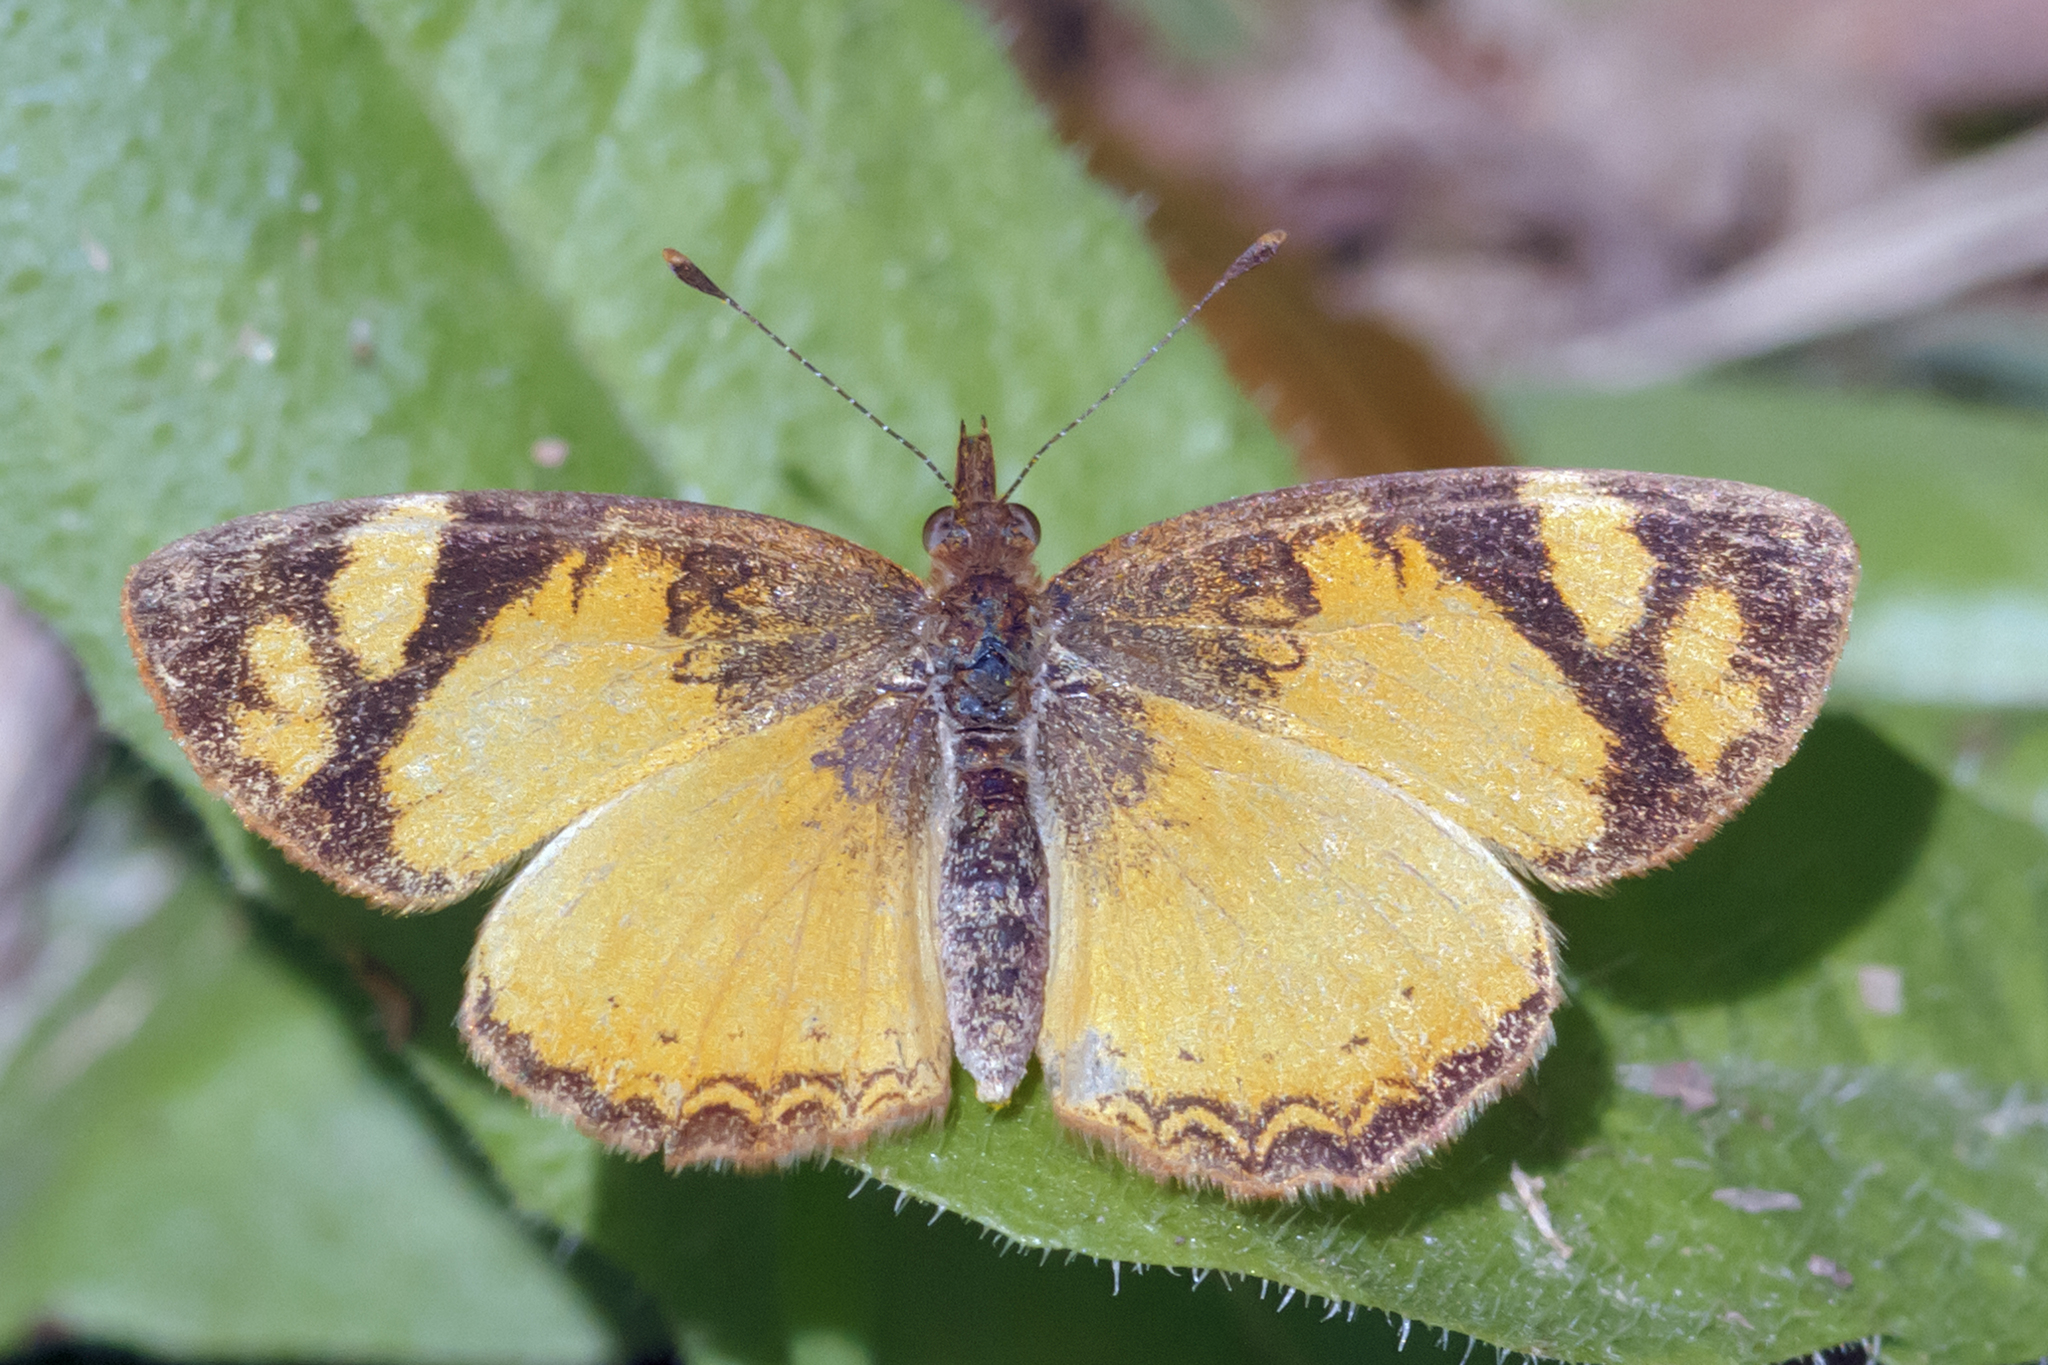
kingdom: Animalia
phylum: Arthropoda
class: Insecta
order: Lepidoptera
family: Nymphalidae
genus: Tegosa
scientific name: Tegosa claudina
